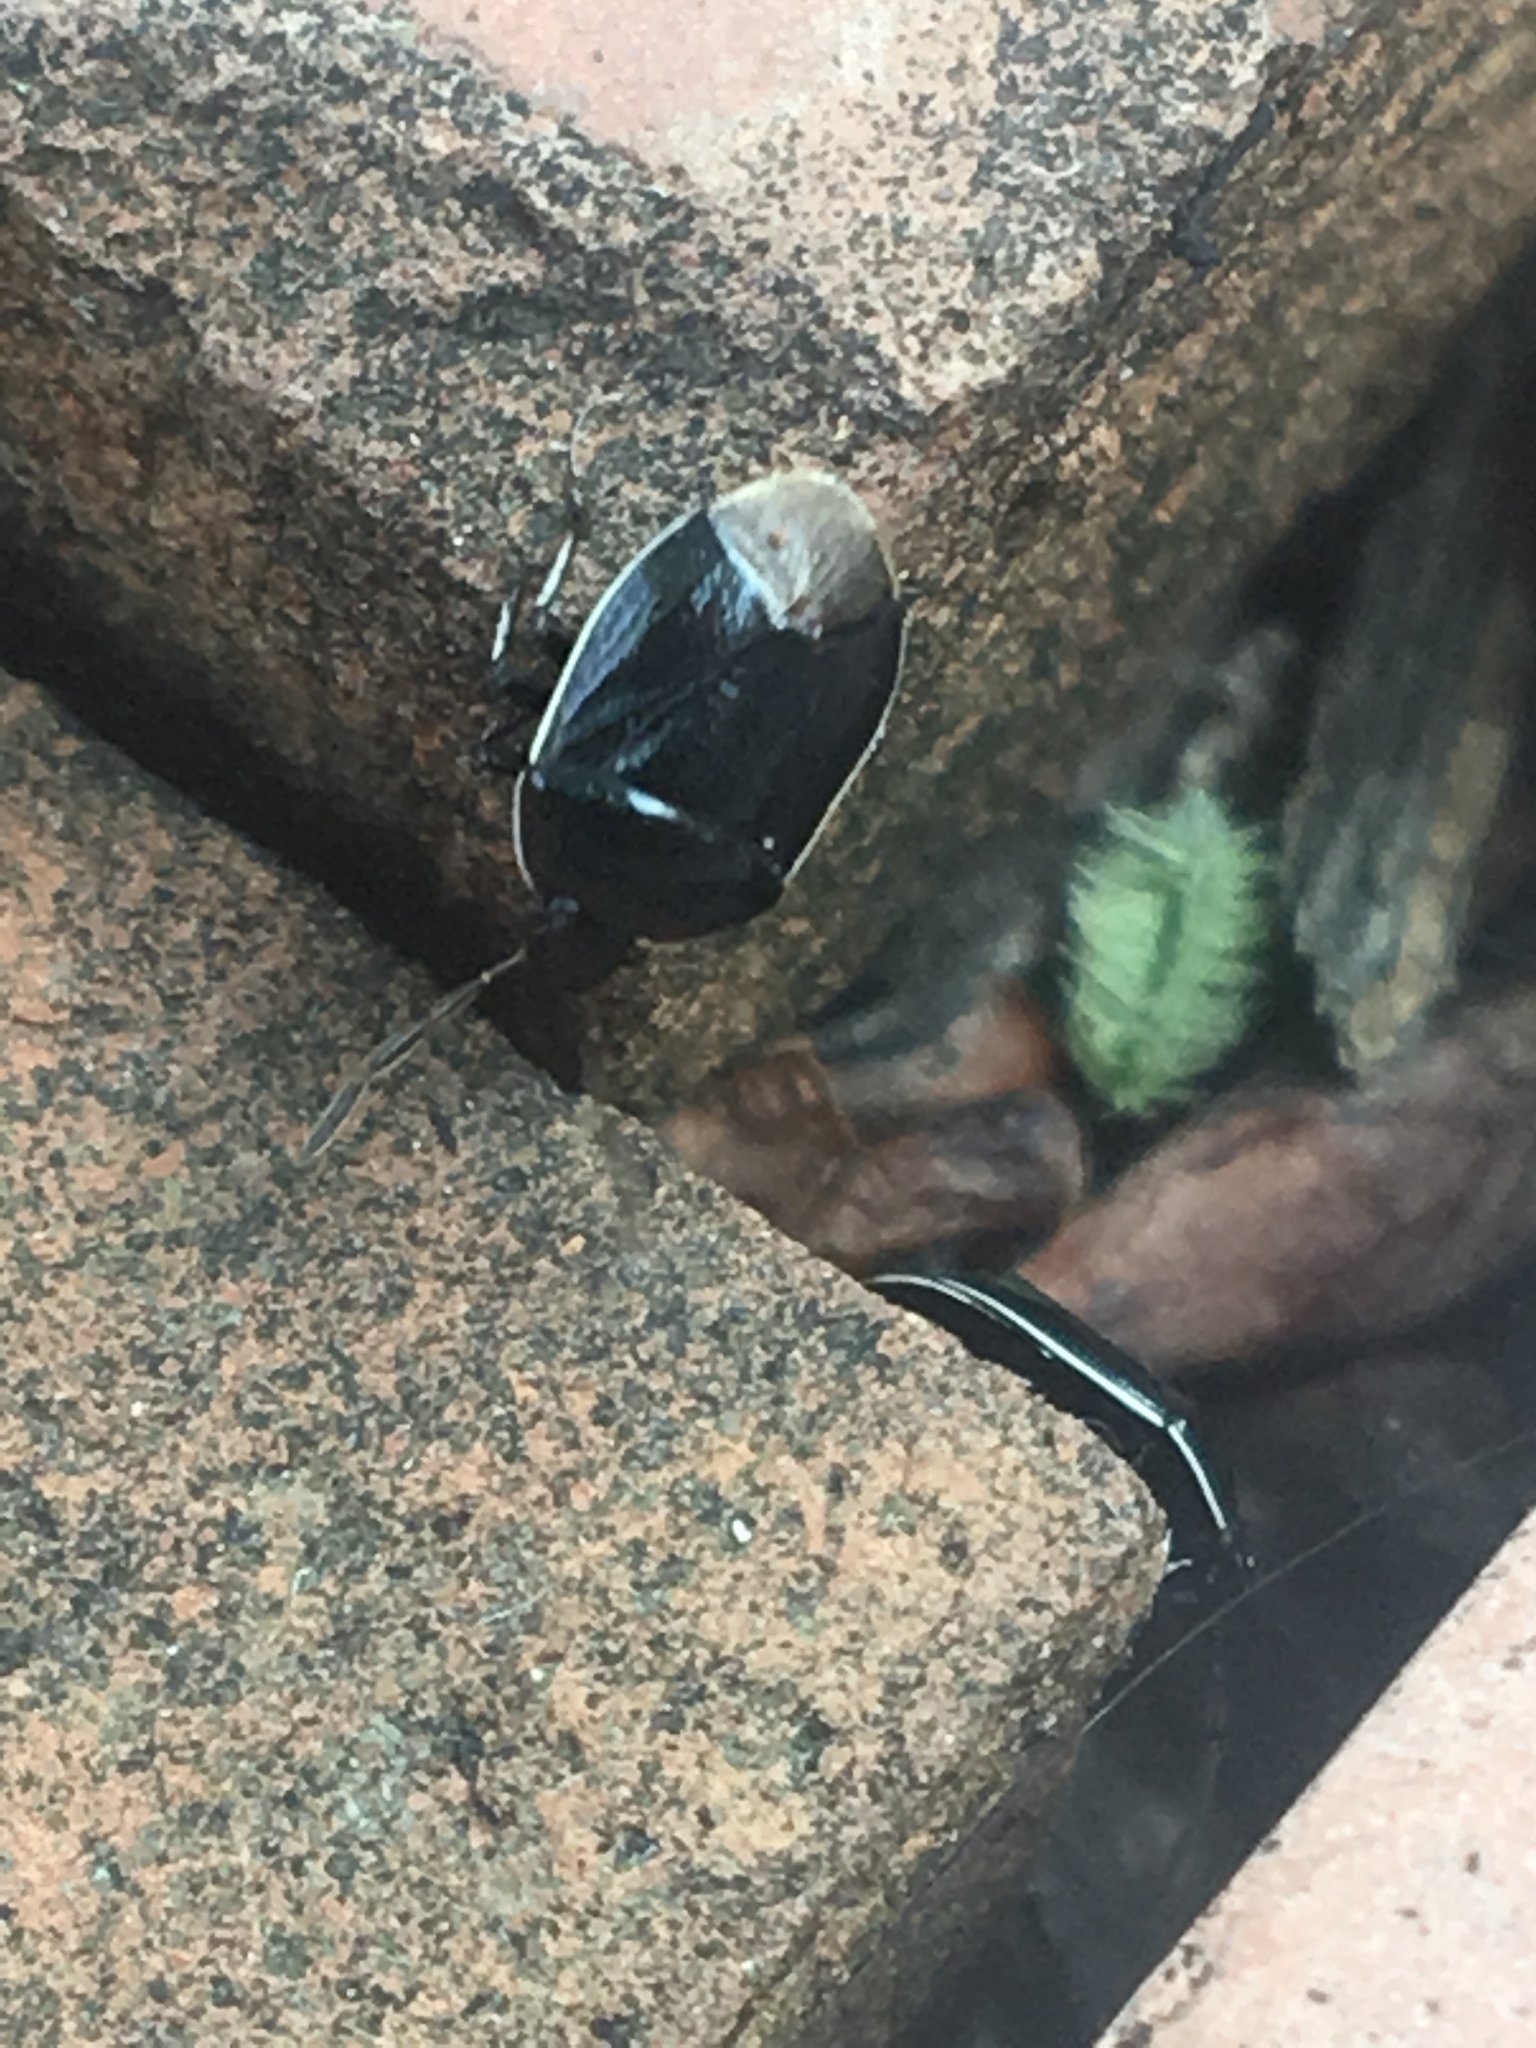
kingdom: Animalia
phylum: Arthropoda
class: Insecta
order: Hemiptera
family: Cydnidae
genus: Sehirus
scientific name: Sehirus cinctus
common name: White-margined burrower bug
